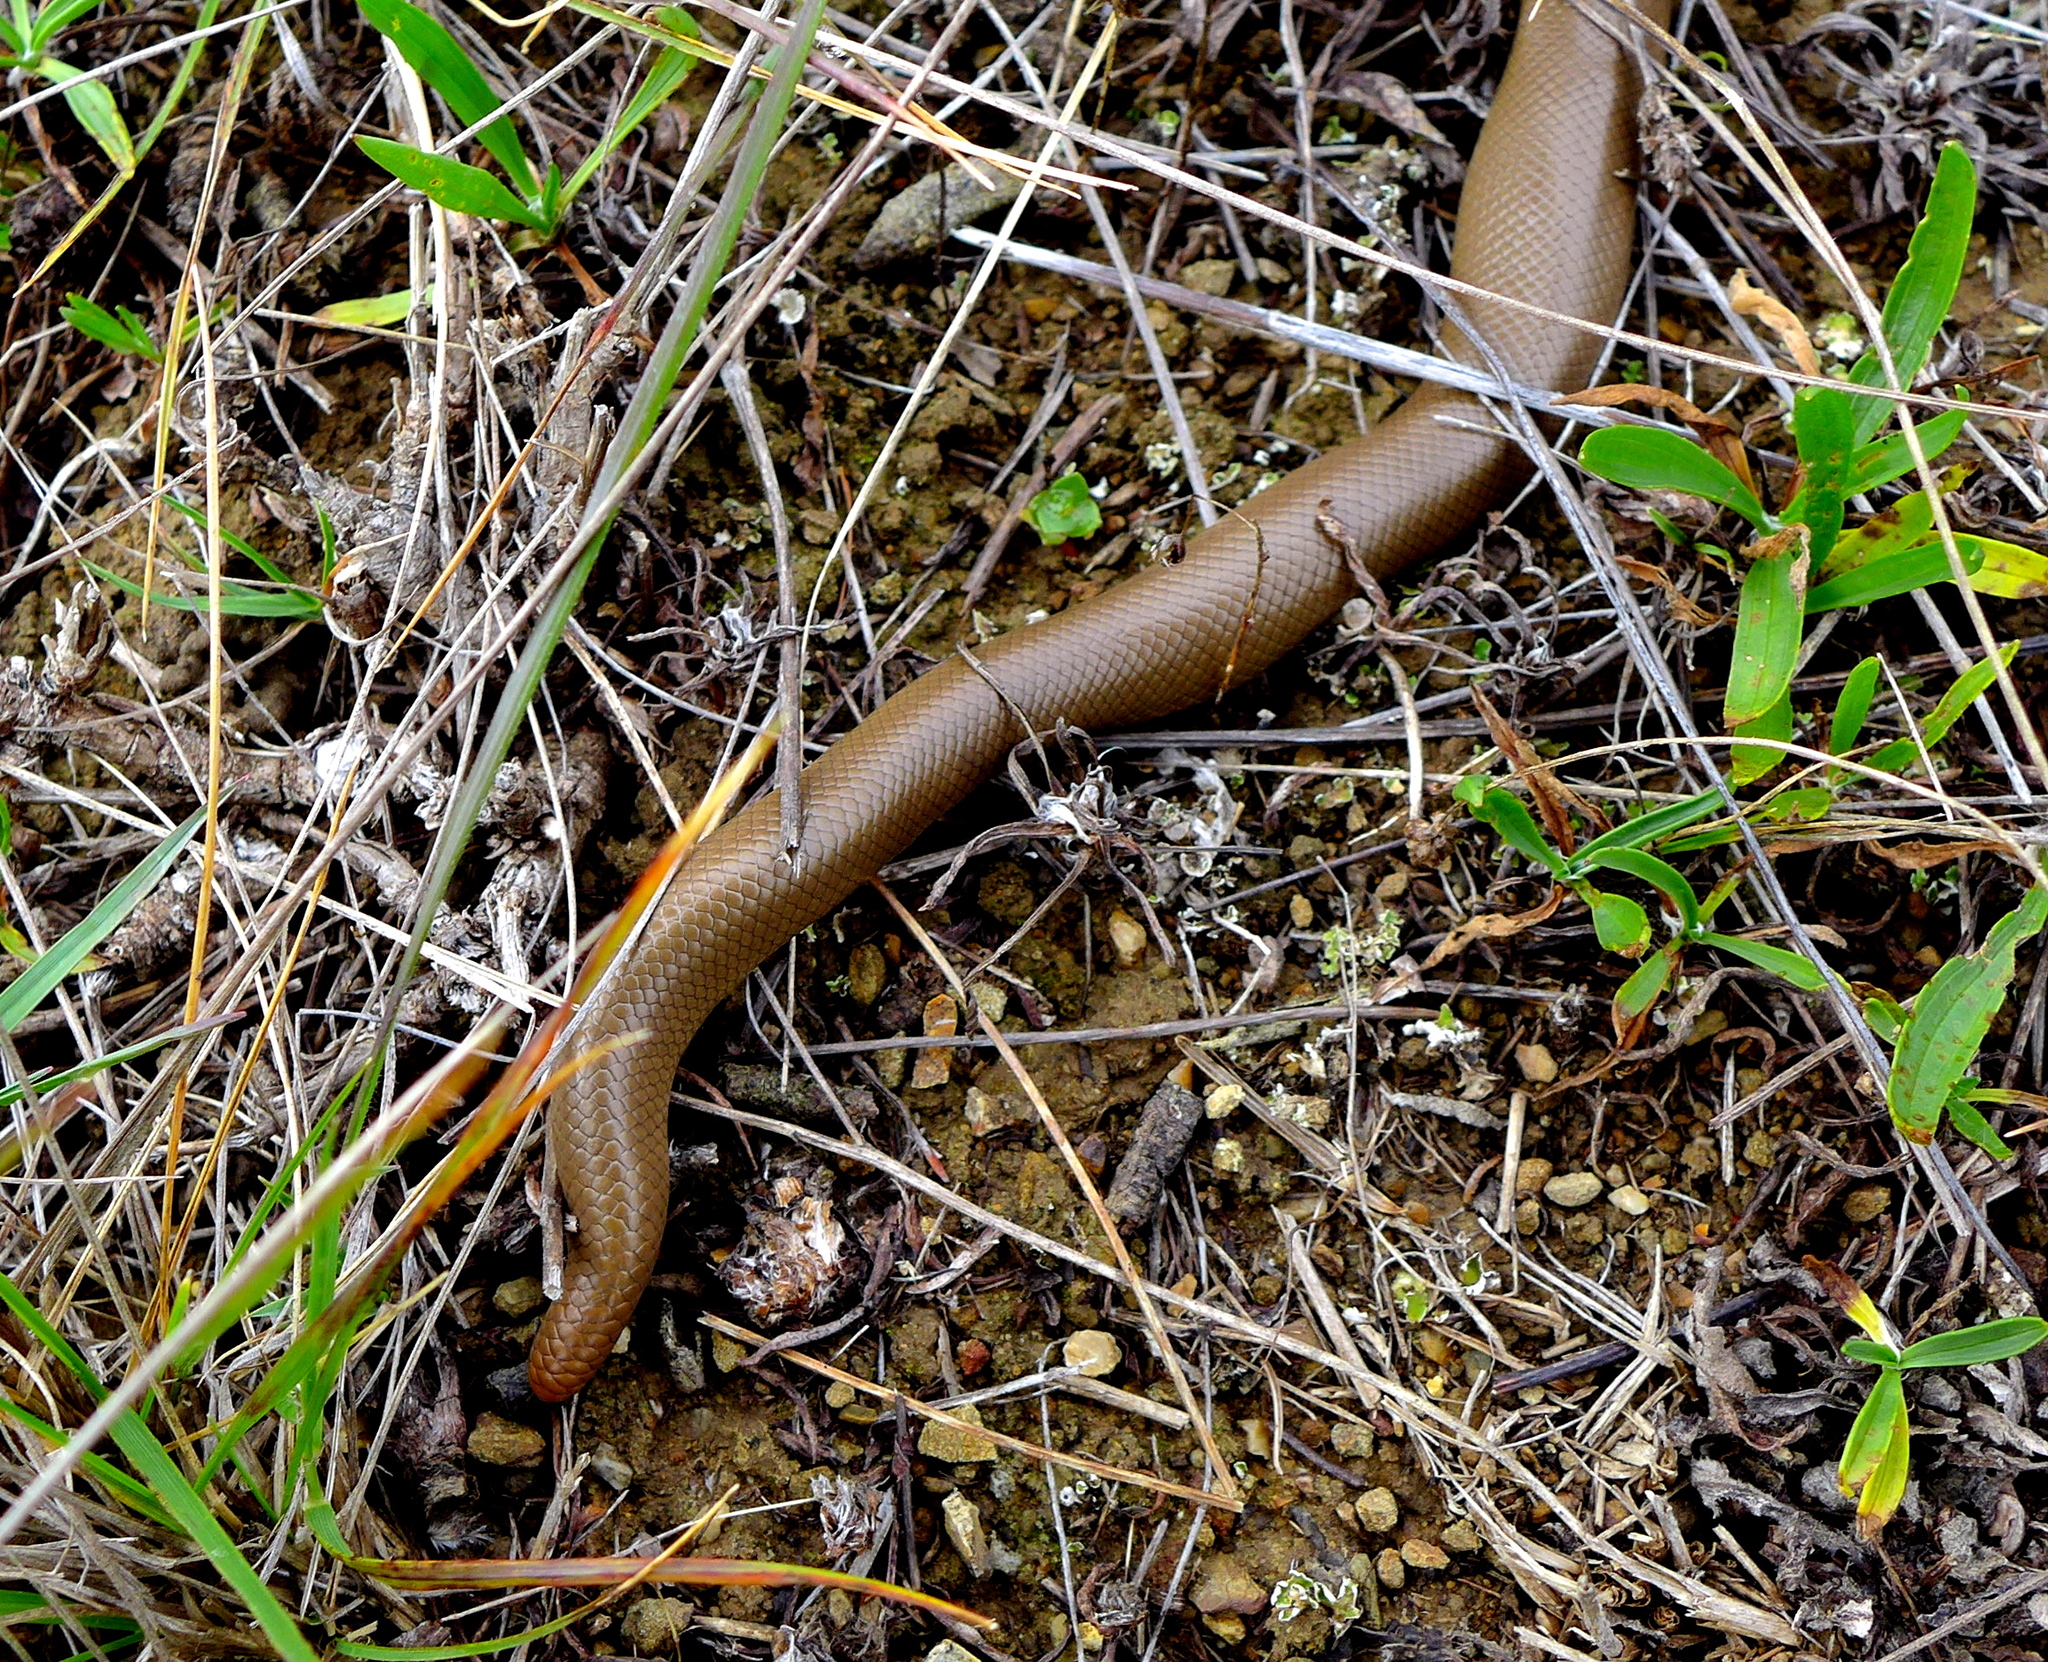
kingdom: Animalia
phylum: Chordata
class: Squamata
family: Boidae
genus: Charina
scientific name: Charina bottae
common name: Northern rubber boa
